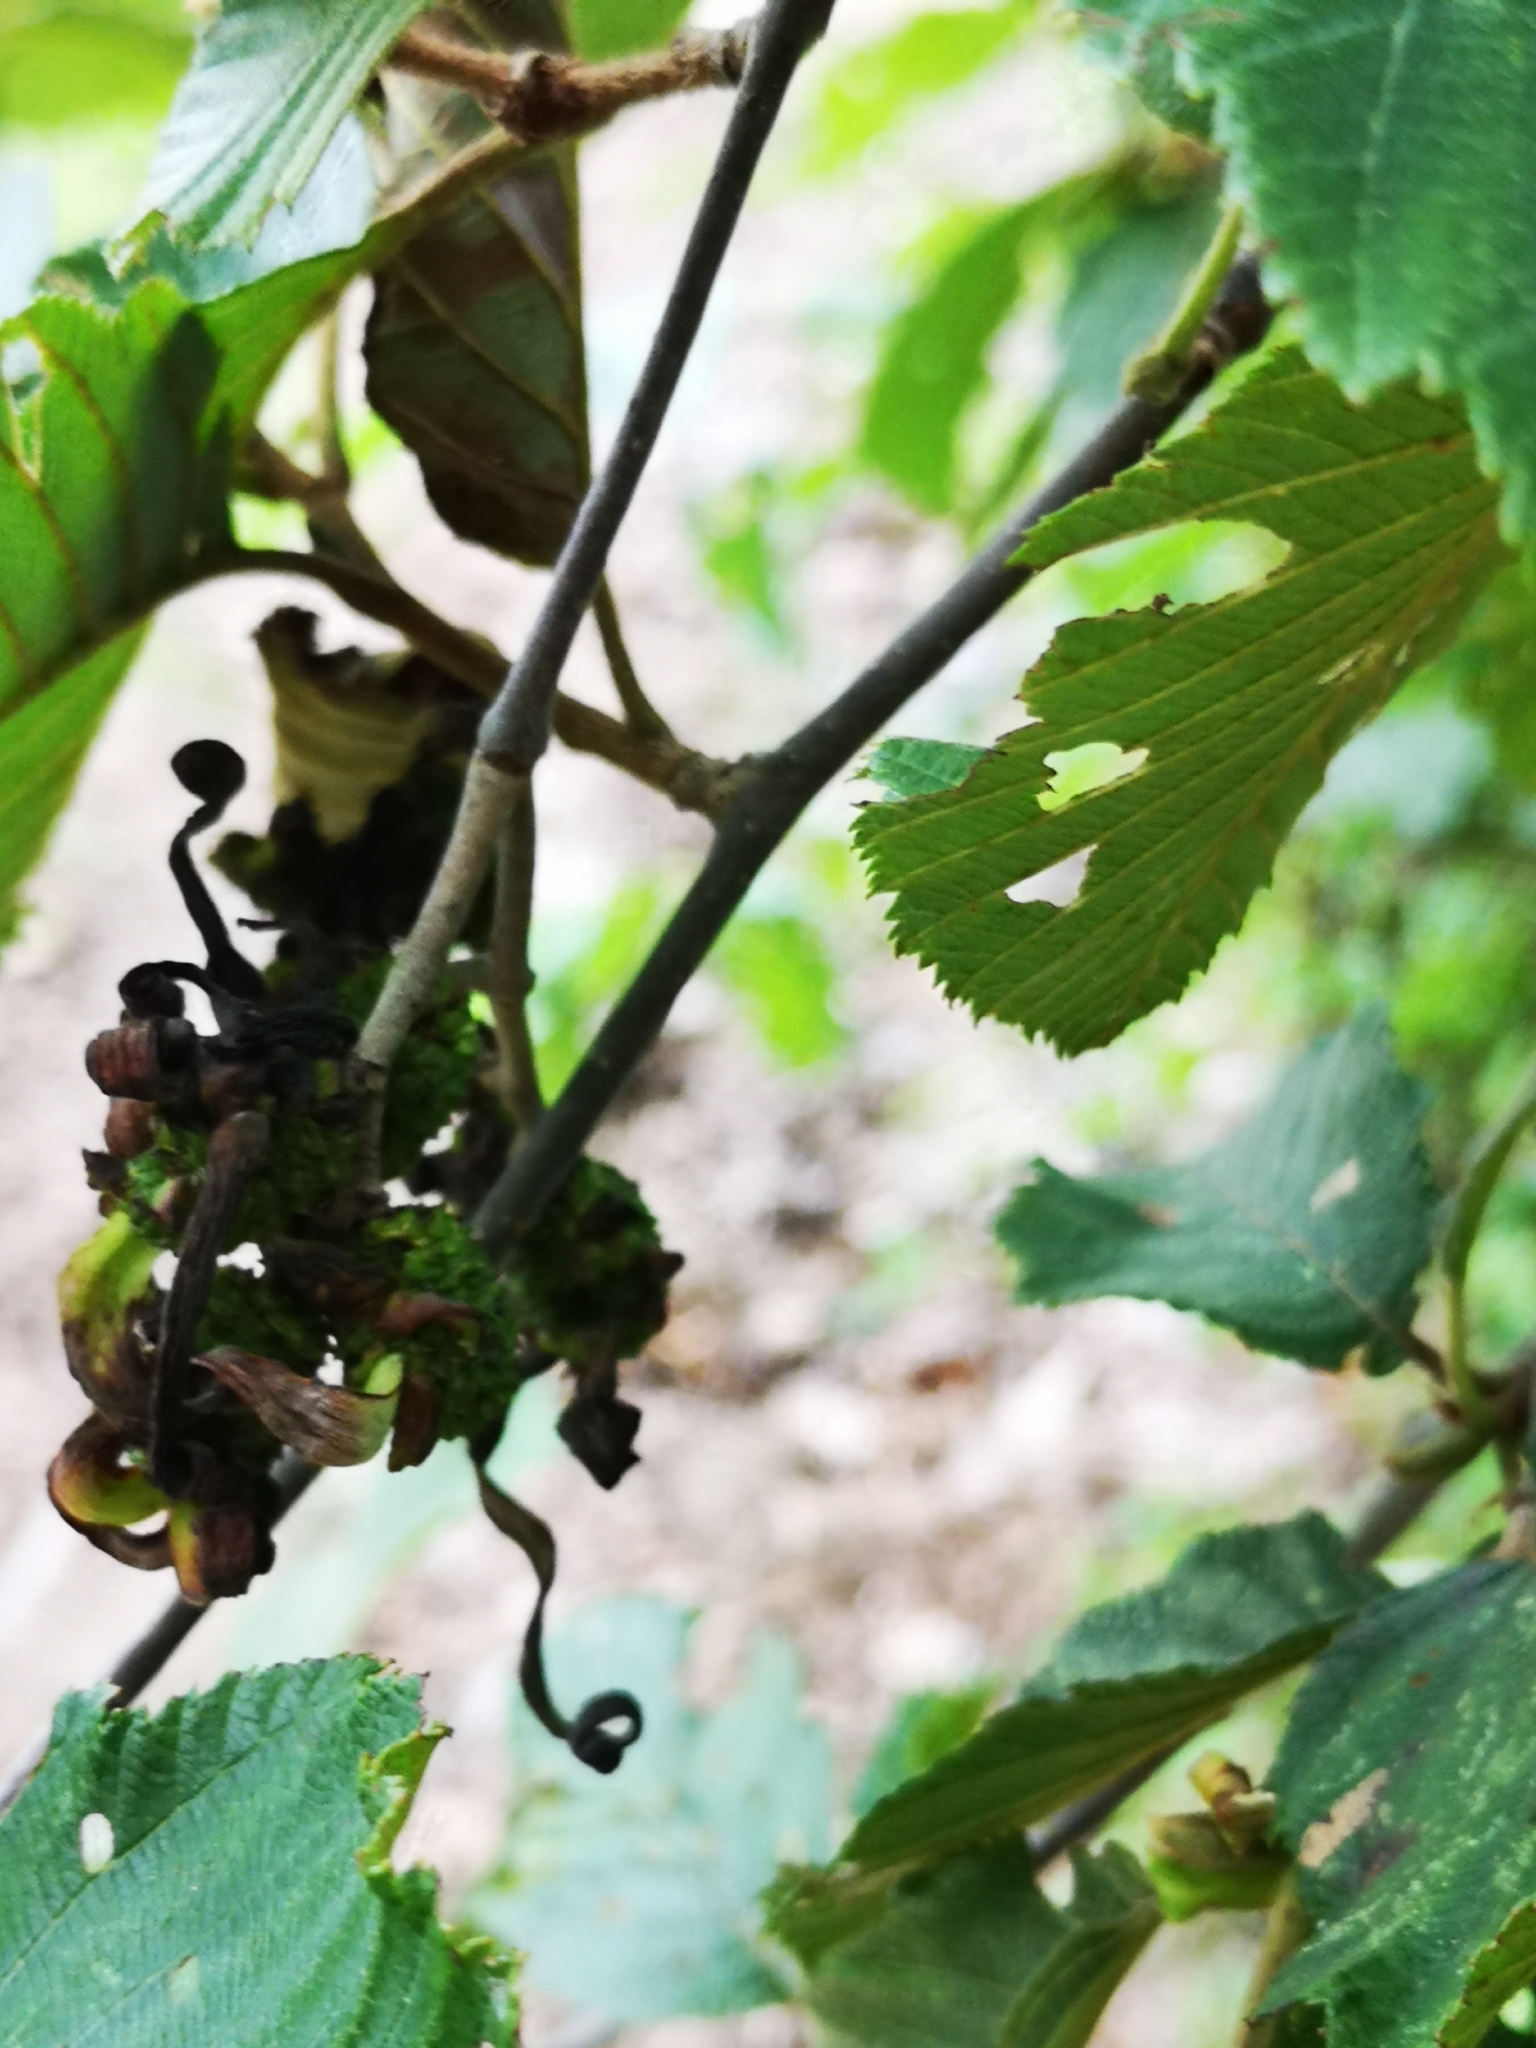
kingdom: Fungi
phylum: Ascomycota
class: Taphrinomycetes
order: Taphrinales
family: Taphrinaceae
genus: Taphrina
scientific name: Taphrina robinsoniana
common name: Eastern american alder tongue gall fungus
